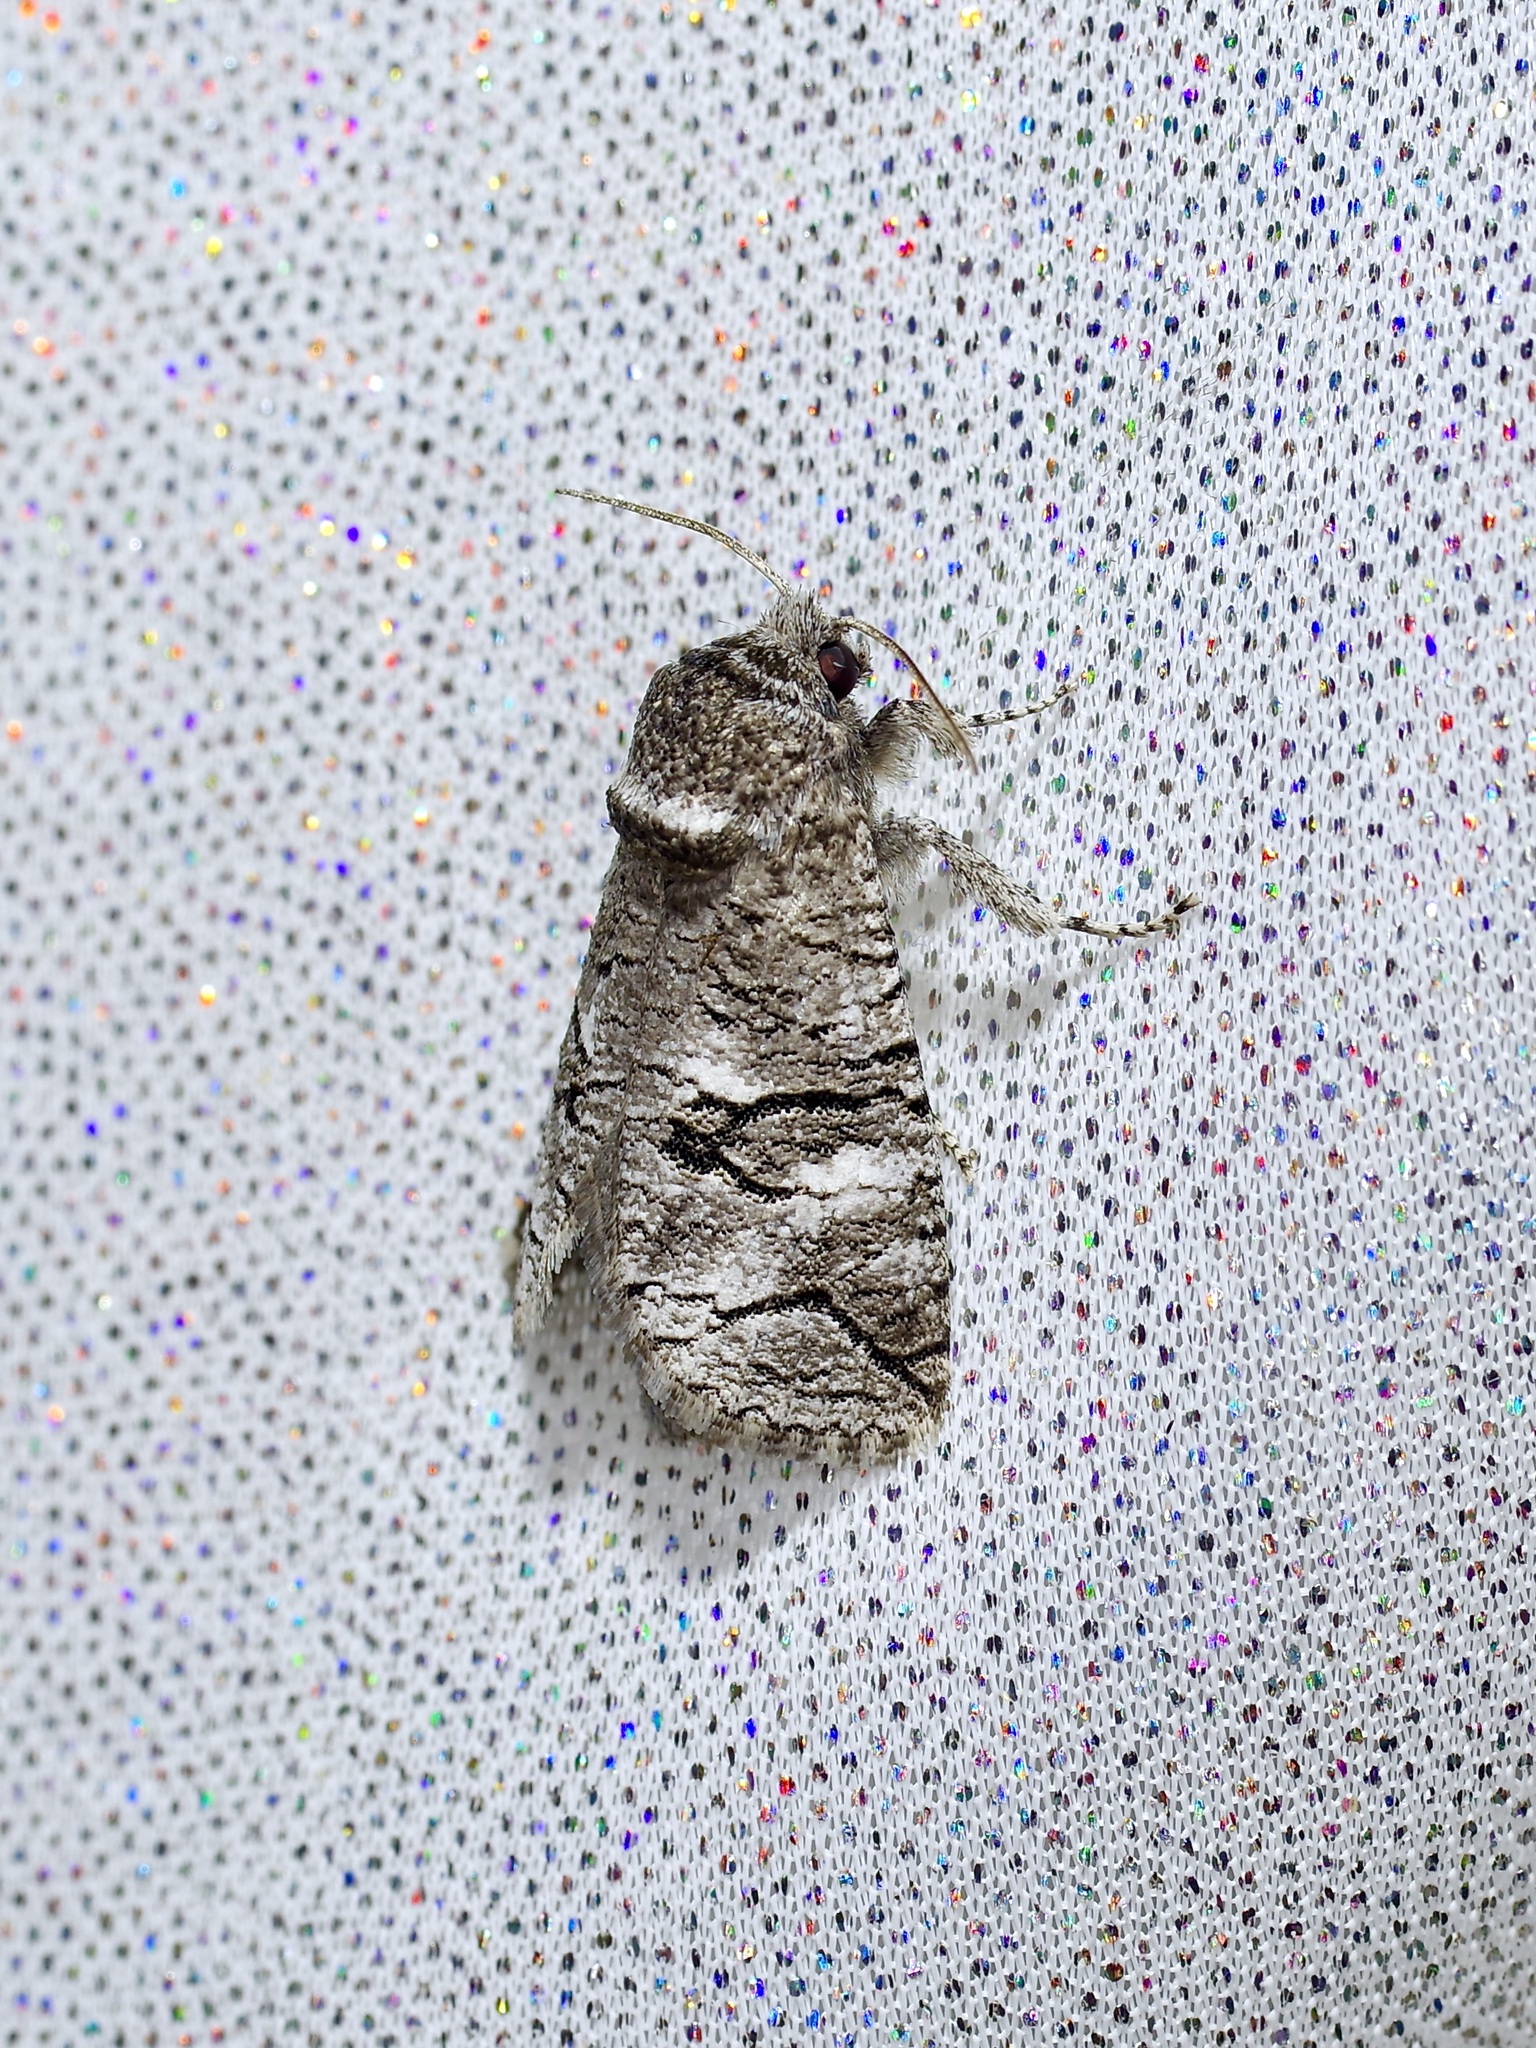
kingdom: Animalia
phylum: Arthropoda
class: Insecta
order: Lepidoptera
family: Cossidae
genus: Fania
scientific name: Fania nanus
